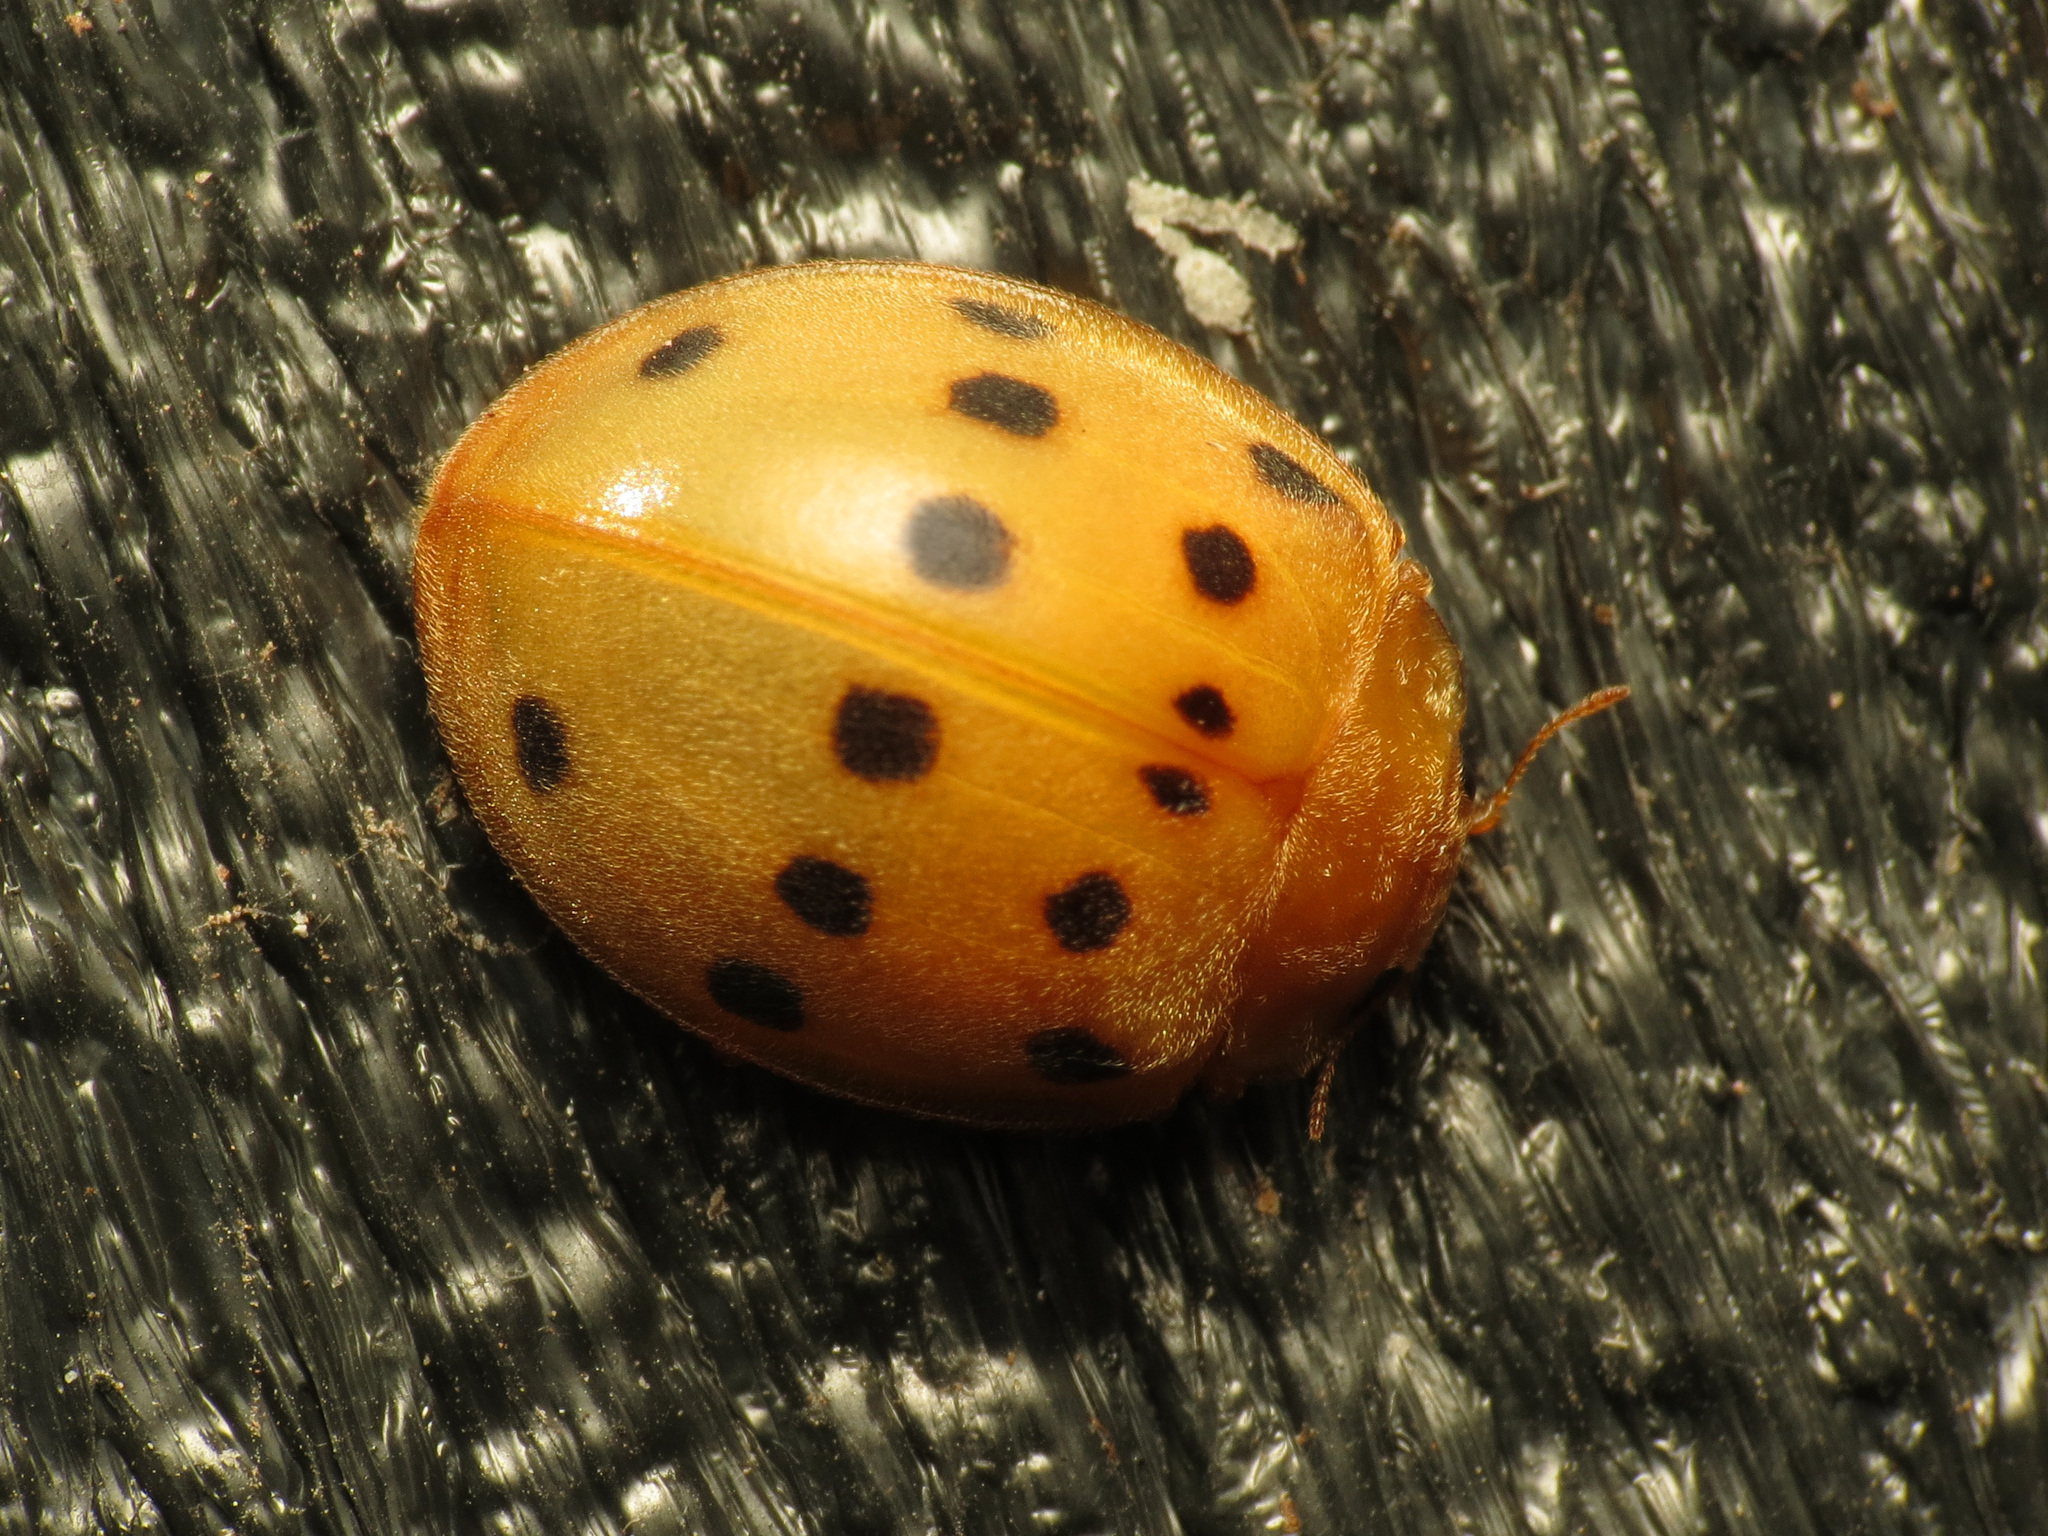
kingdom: Animalia
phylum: Arthropoda
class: Insecta
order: Coleoptera
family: Coccinellidae
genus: Epilachna
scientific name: Epilachna tredecimnotata
